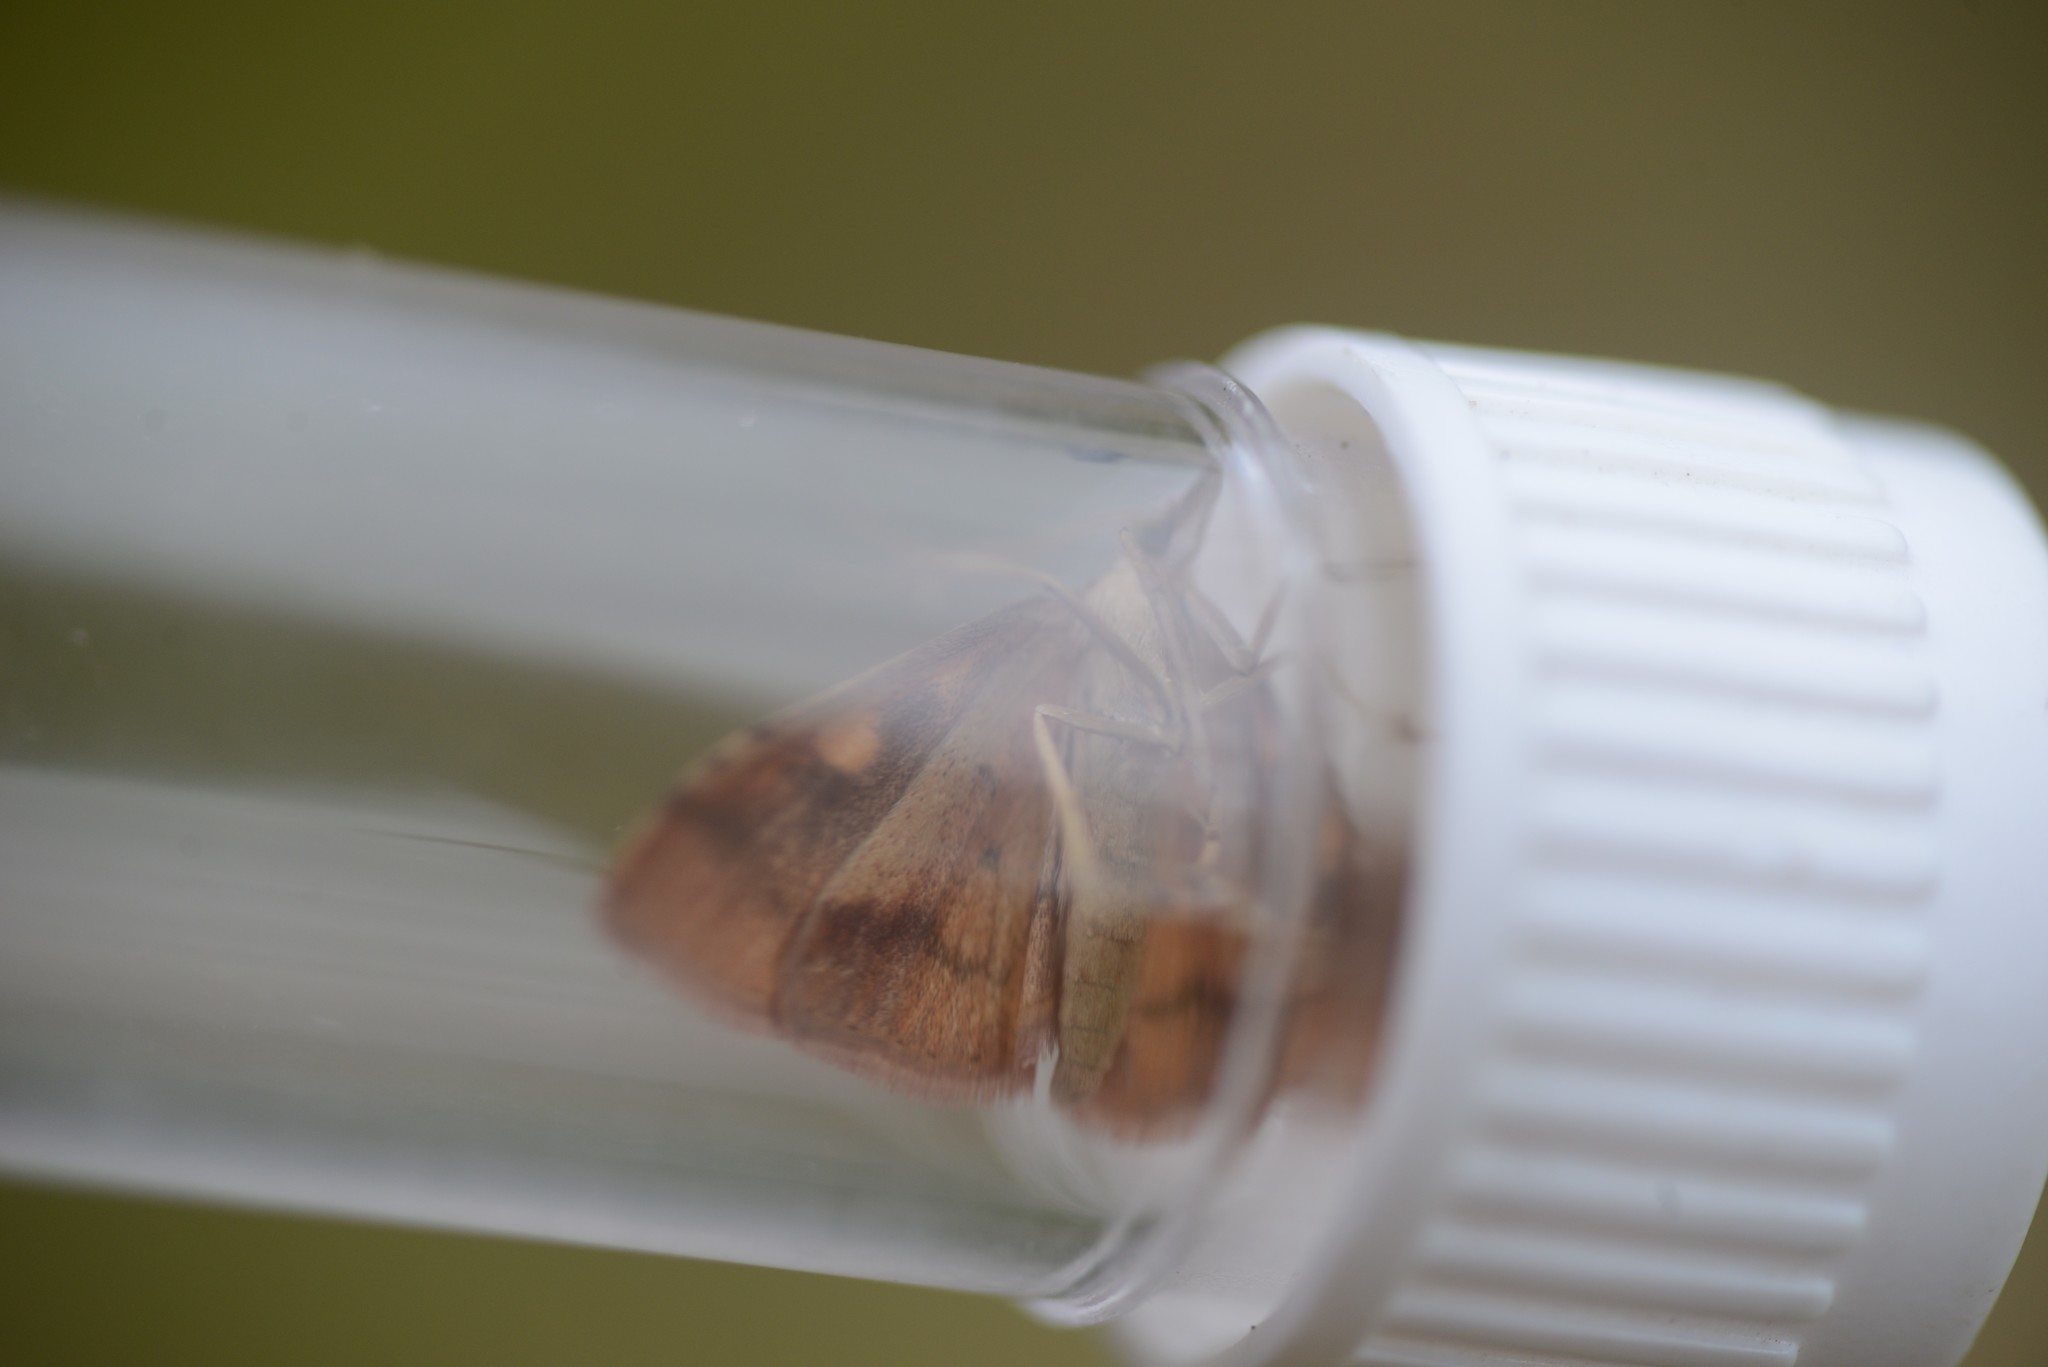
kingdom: Animalia
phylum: Arthropoda
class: Insecta
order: Lepidoptera
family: Crambidae
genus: Udea
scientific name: Udea Mnesictena flavidalis
